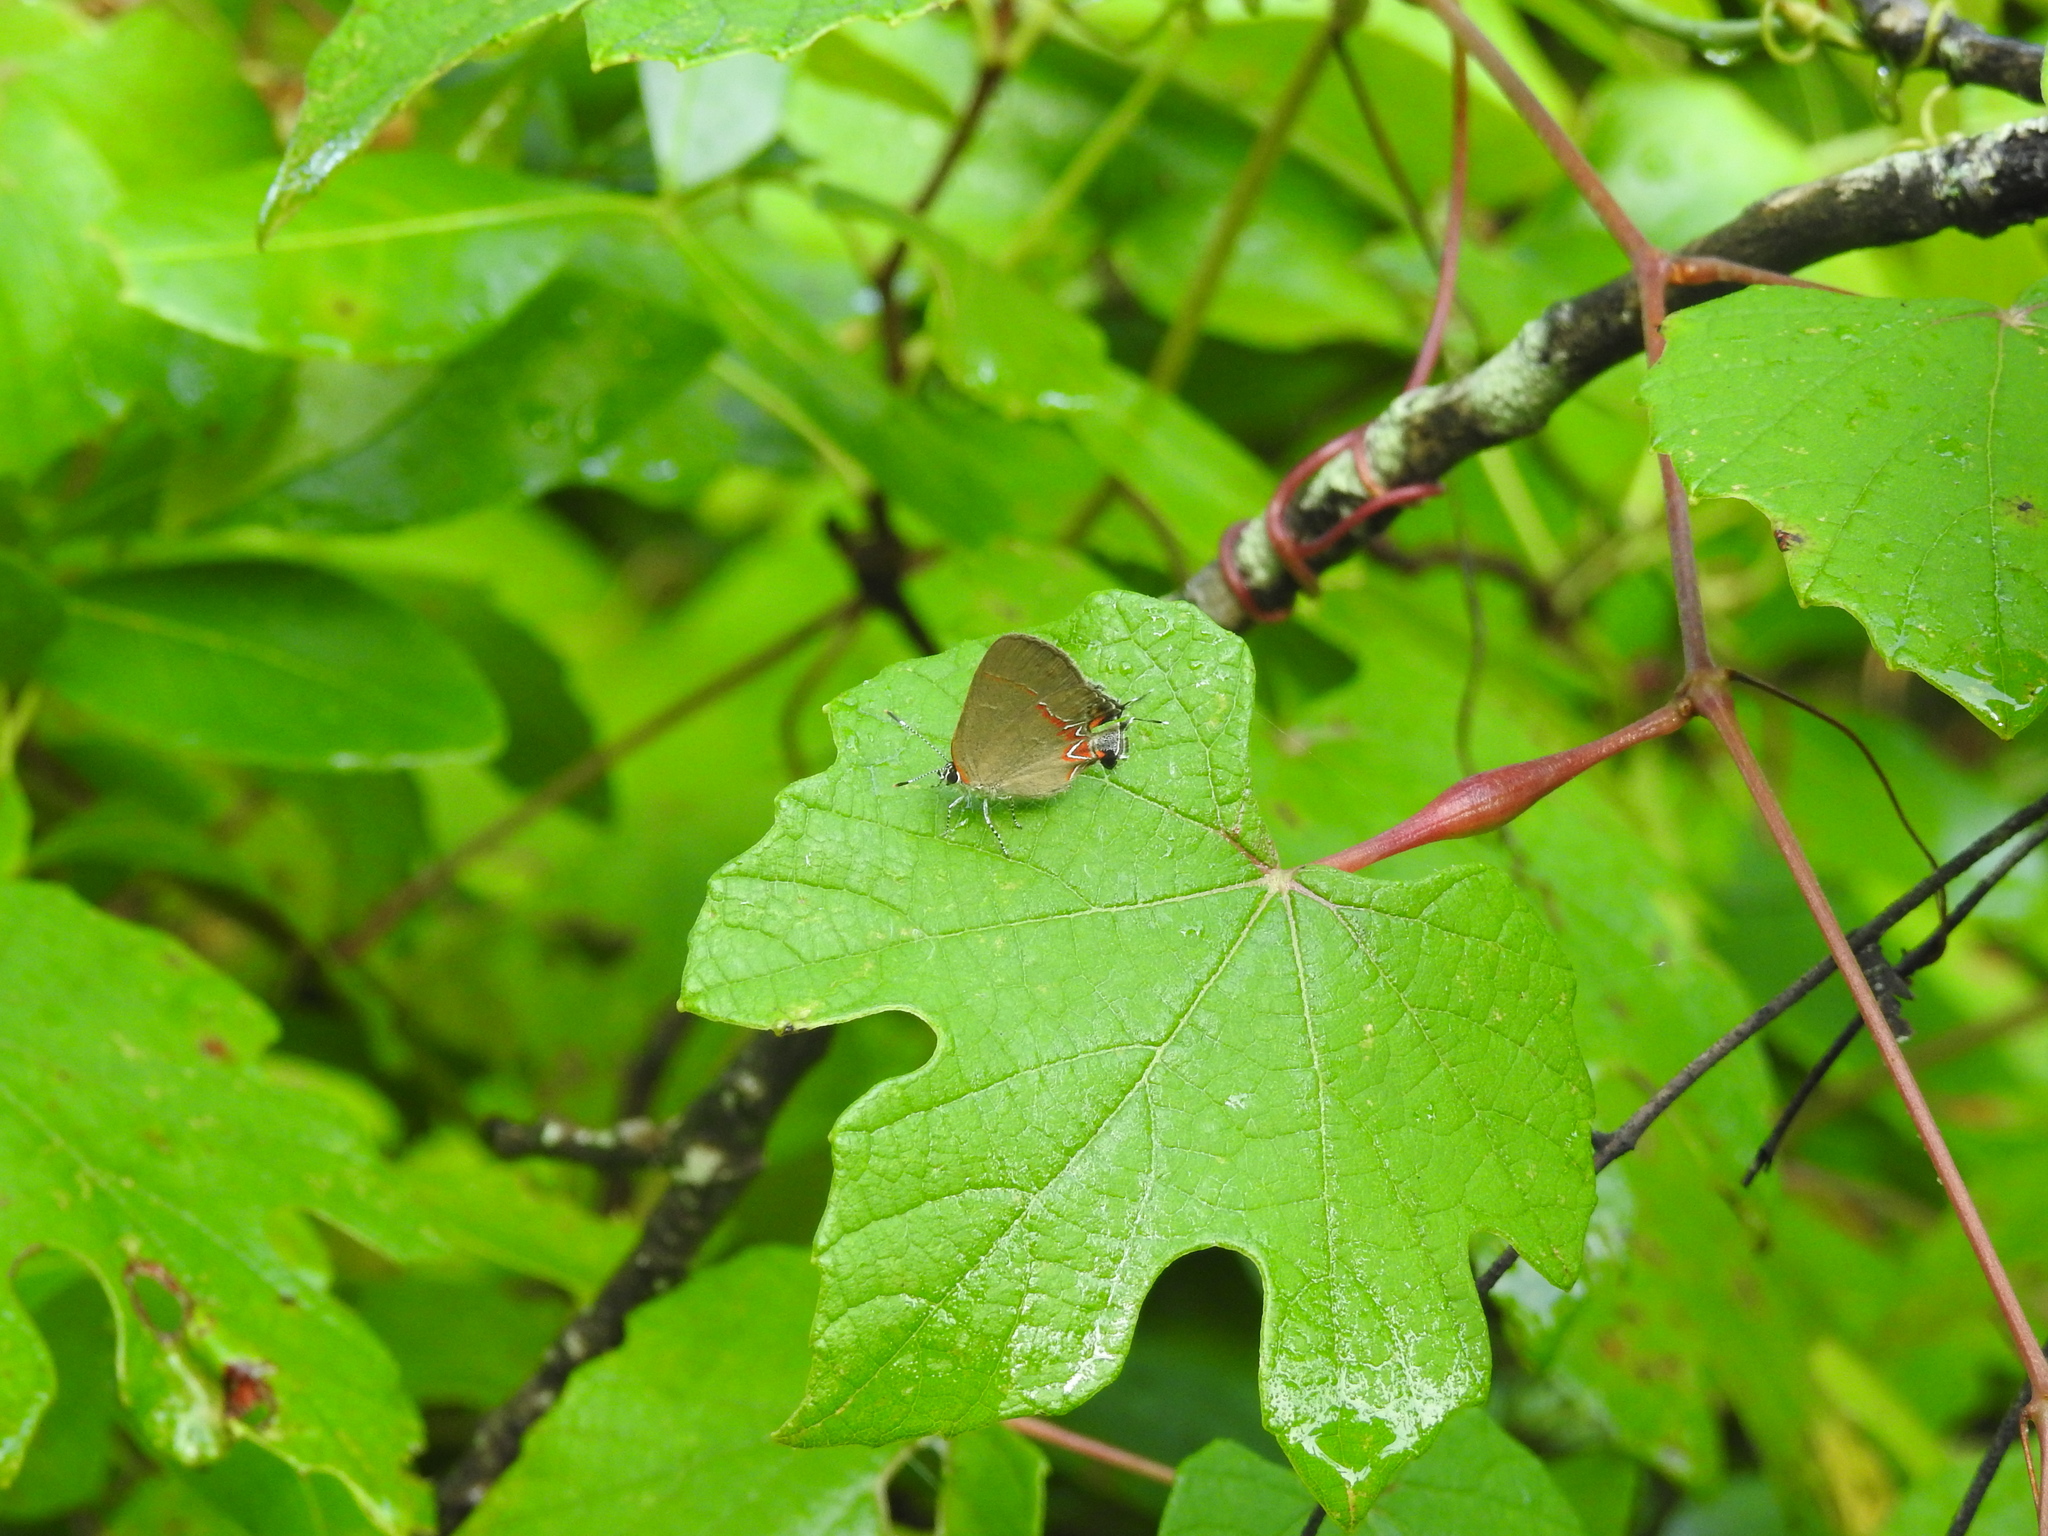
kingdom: Animalia
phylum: Arthropoda
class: Insecta
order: Lepidoptera
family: Lycaenidae
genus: Calycopis
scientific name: Calycopis isobeon
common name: Dusky-blue groundstreak
